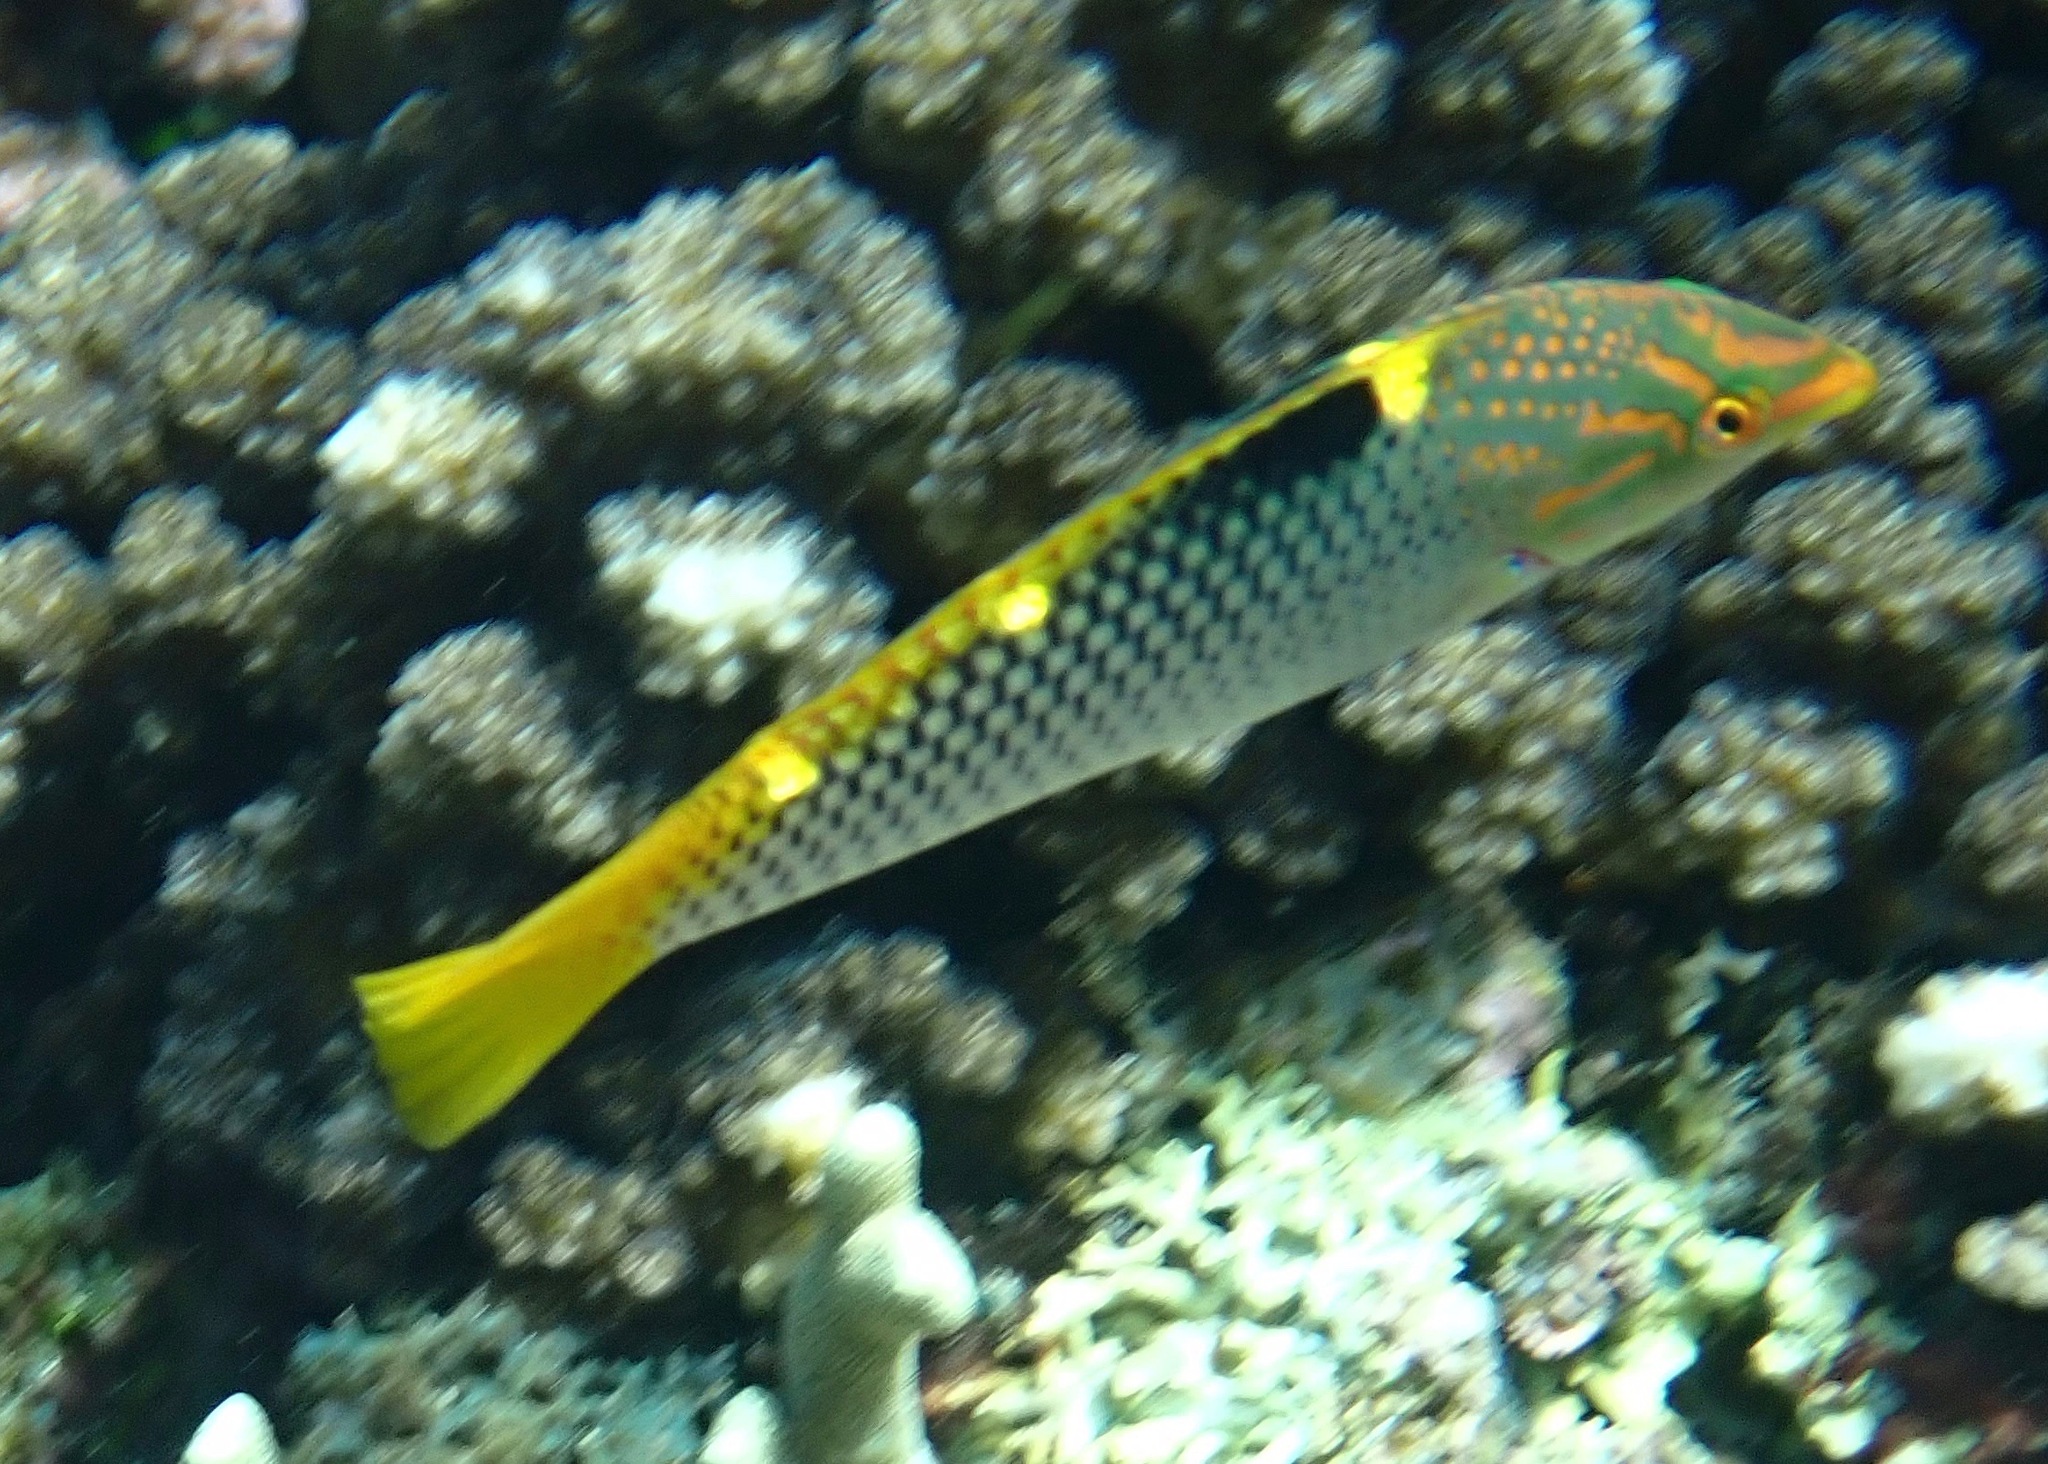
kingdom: Animalia
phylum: Chordata
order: Perciformes
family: Labridae
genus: Halichoeres
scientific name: Halichoeres hortulanus
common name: Checkerboard wrasse
